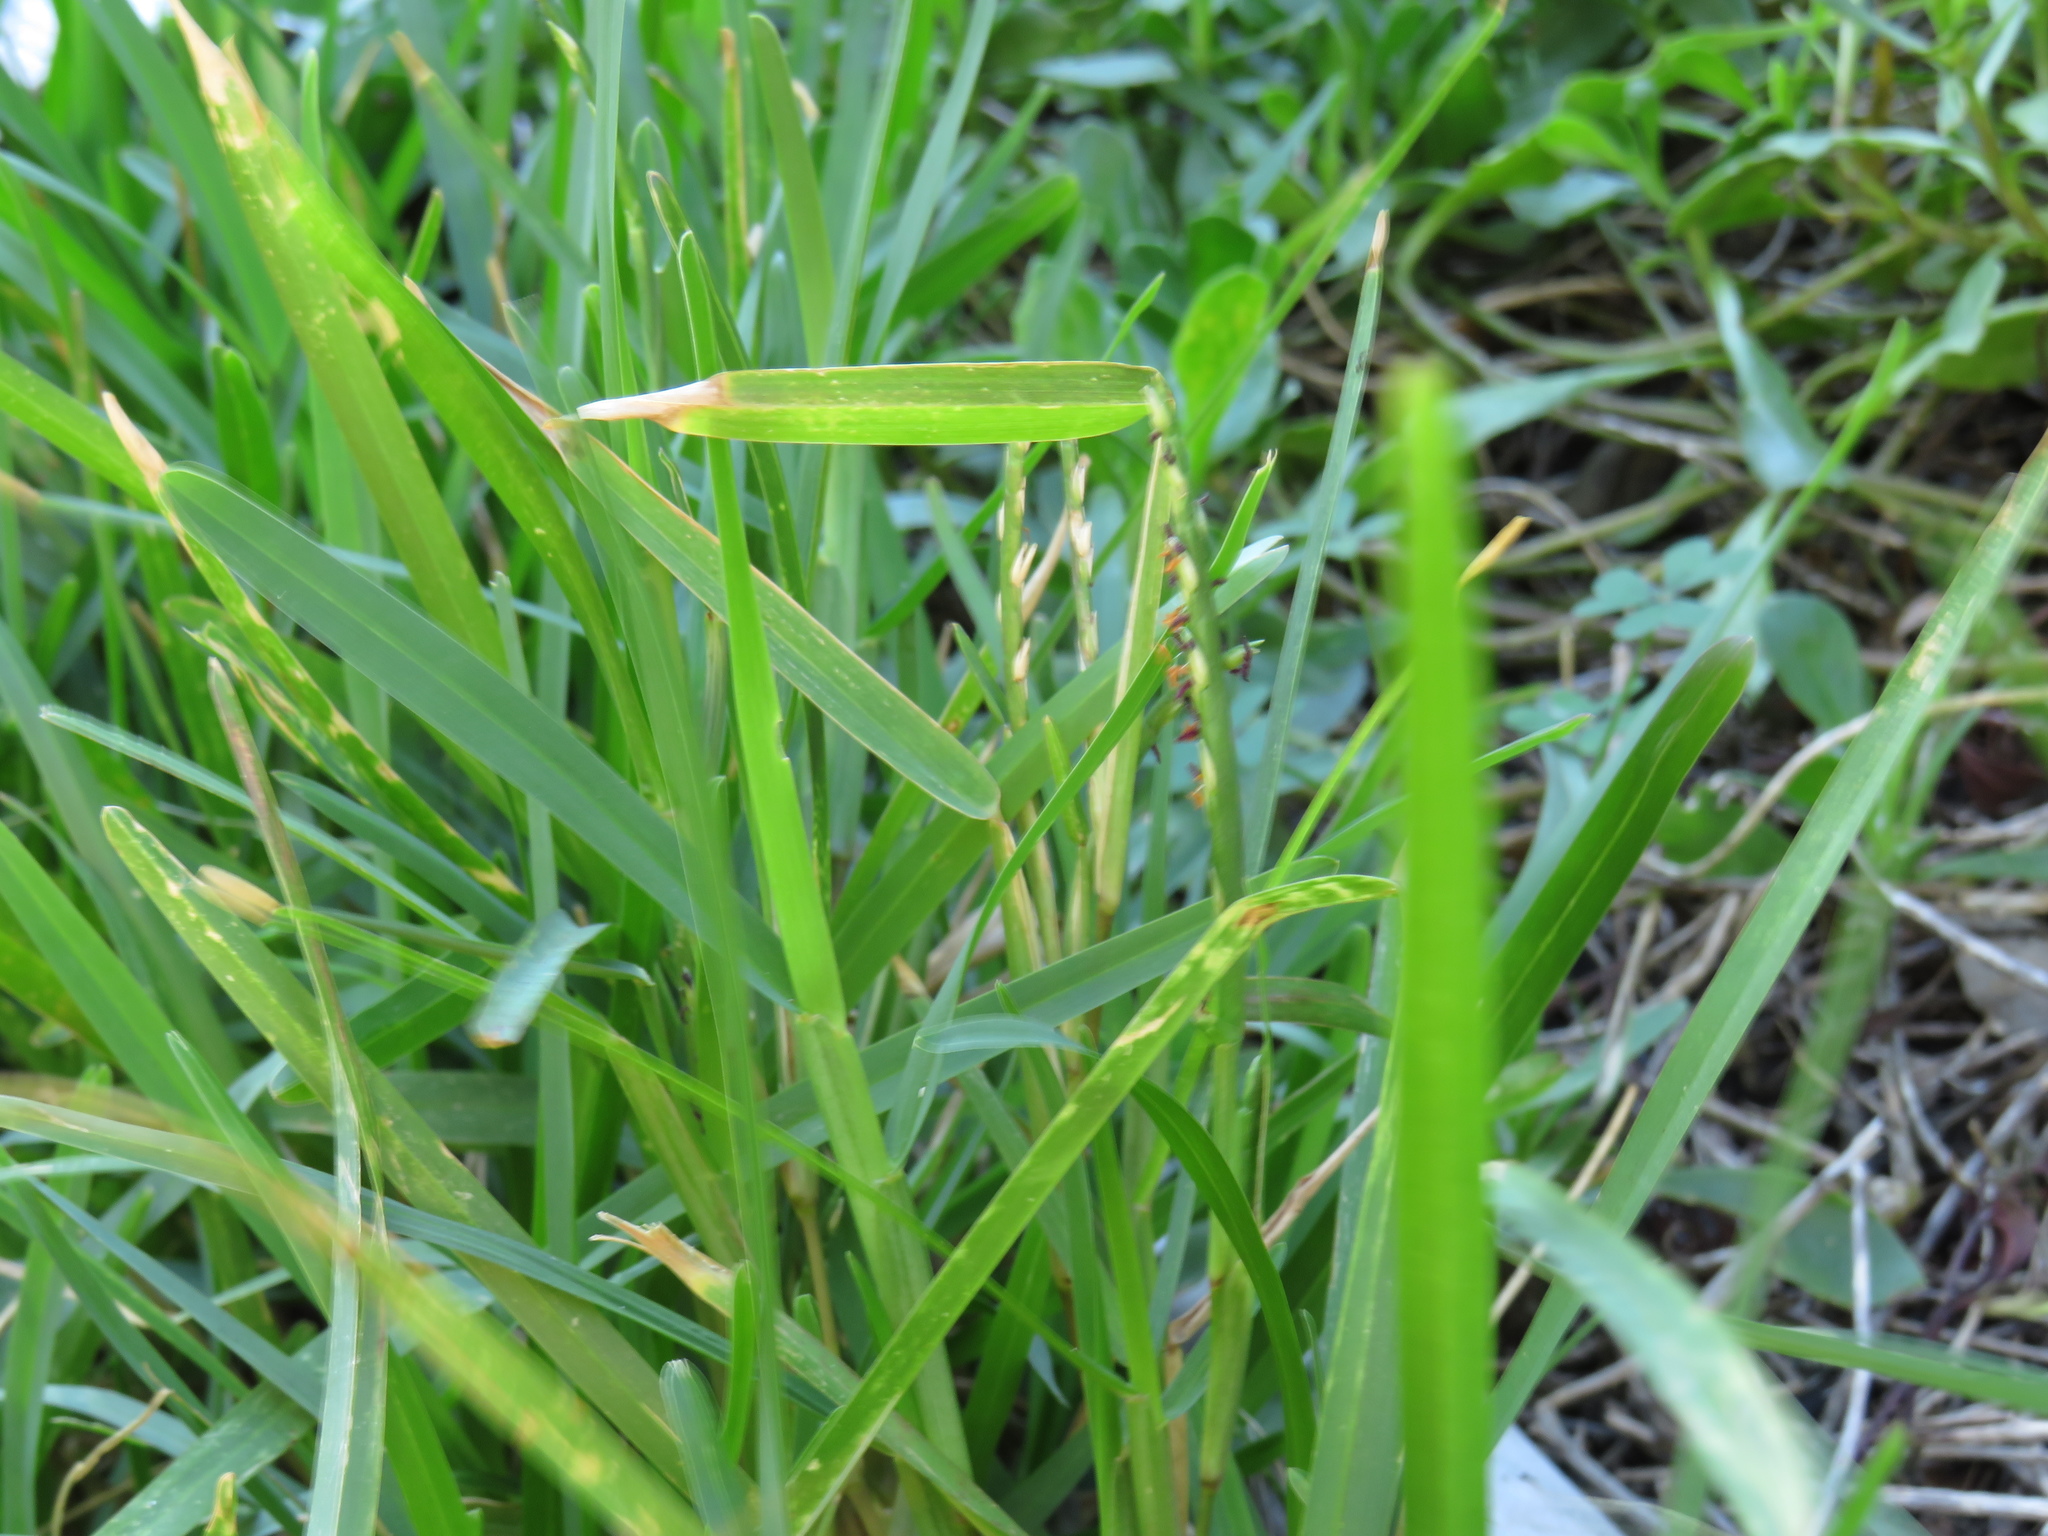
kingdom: Plantae
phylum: Tracheophyta
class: Liliopsida
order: Poales
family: Poaceae
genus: Stenotaphrum
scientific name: Stenotaphrum secundatum
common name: St. augustine grass
